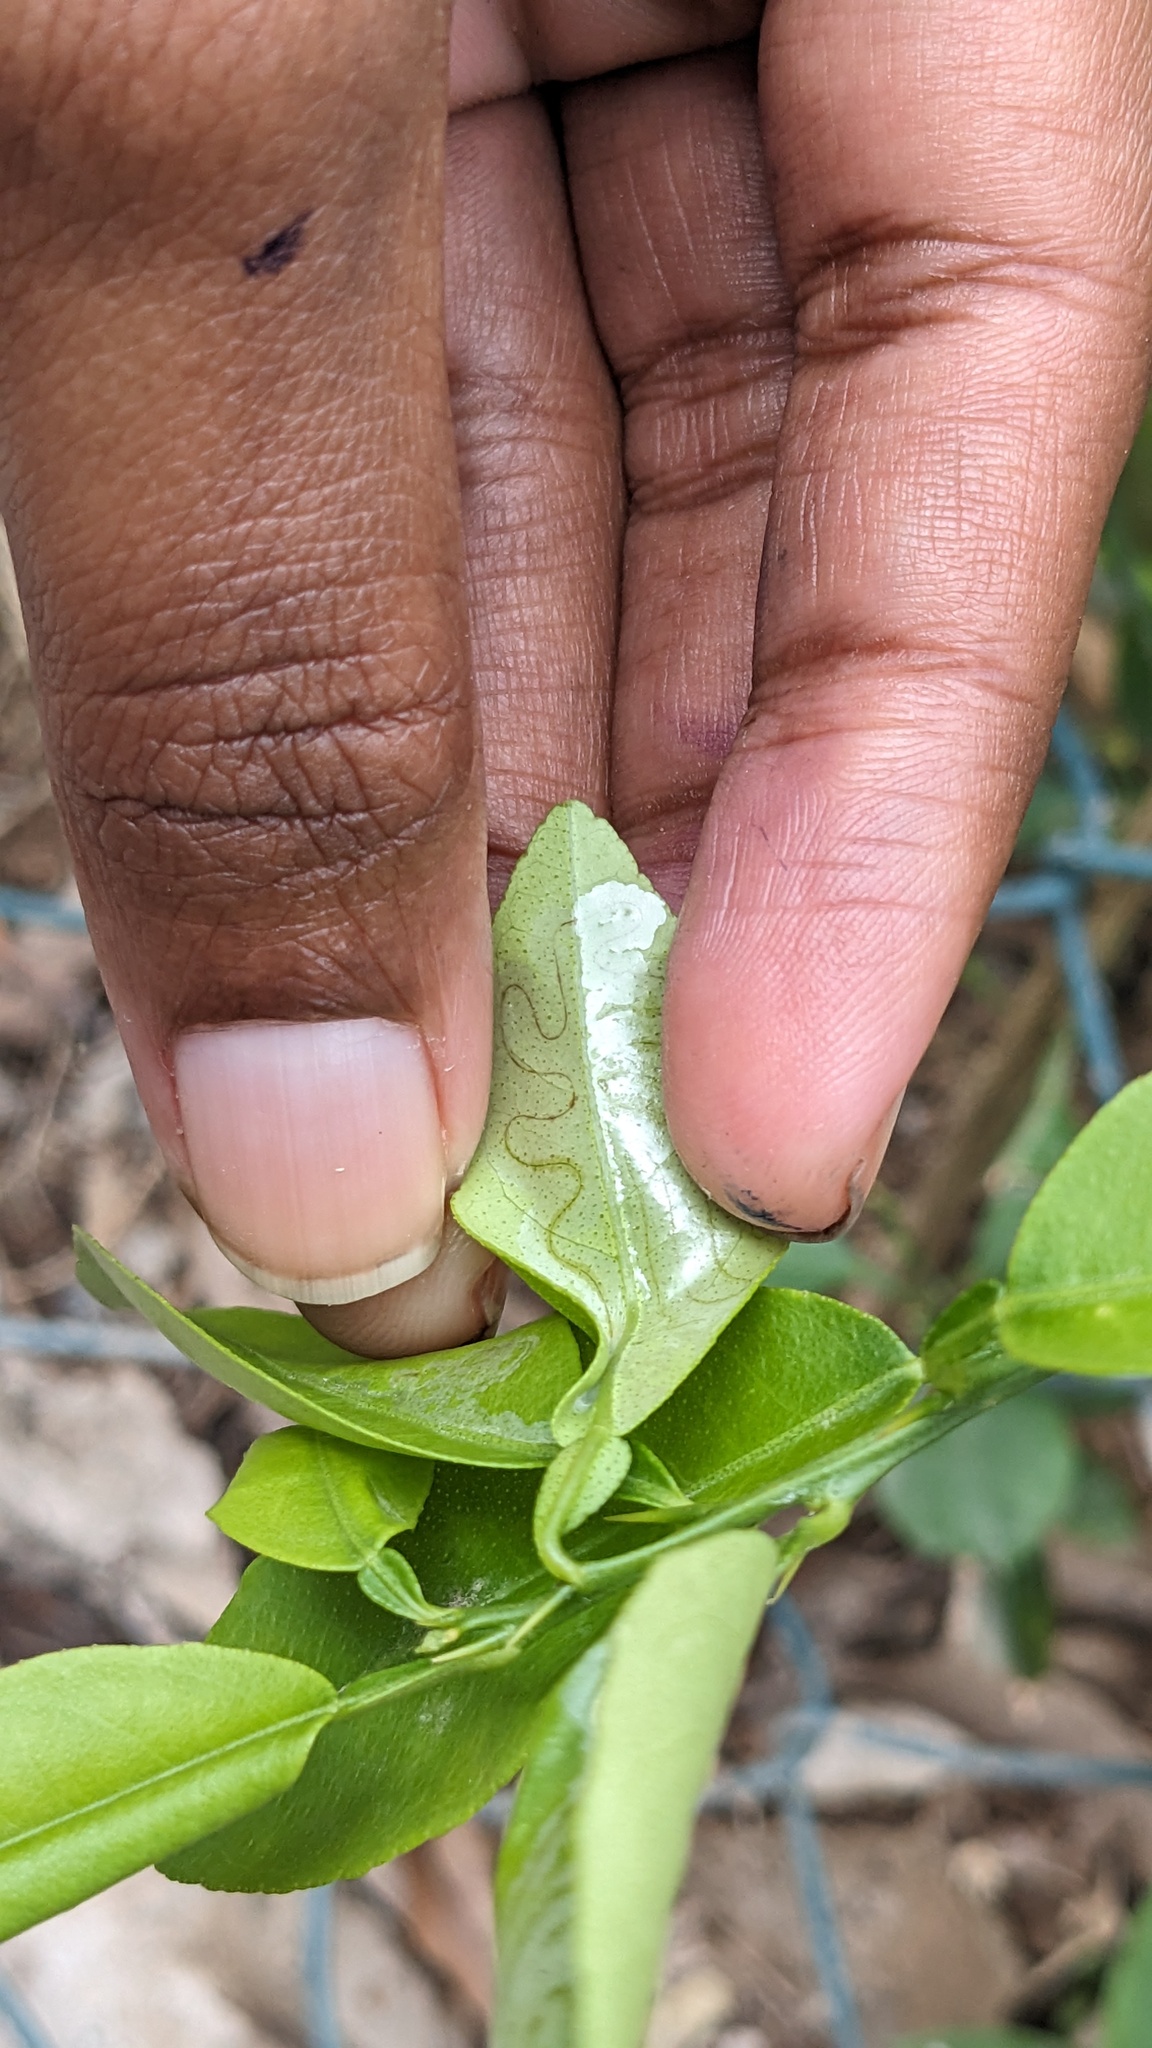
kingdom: Animalia
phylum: Arthropoda
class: Insecta
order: Lepidoptera
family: Gracillariidae
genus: Phyllocnistis
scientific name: Phyllocnistis citrella
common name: Citrus leafminer
